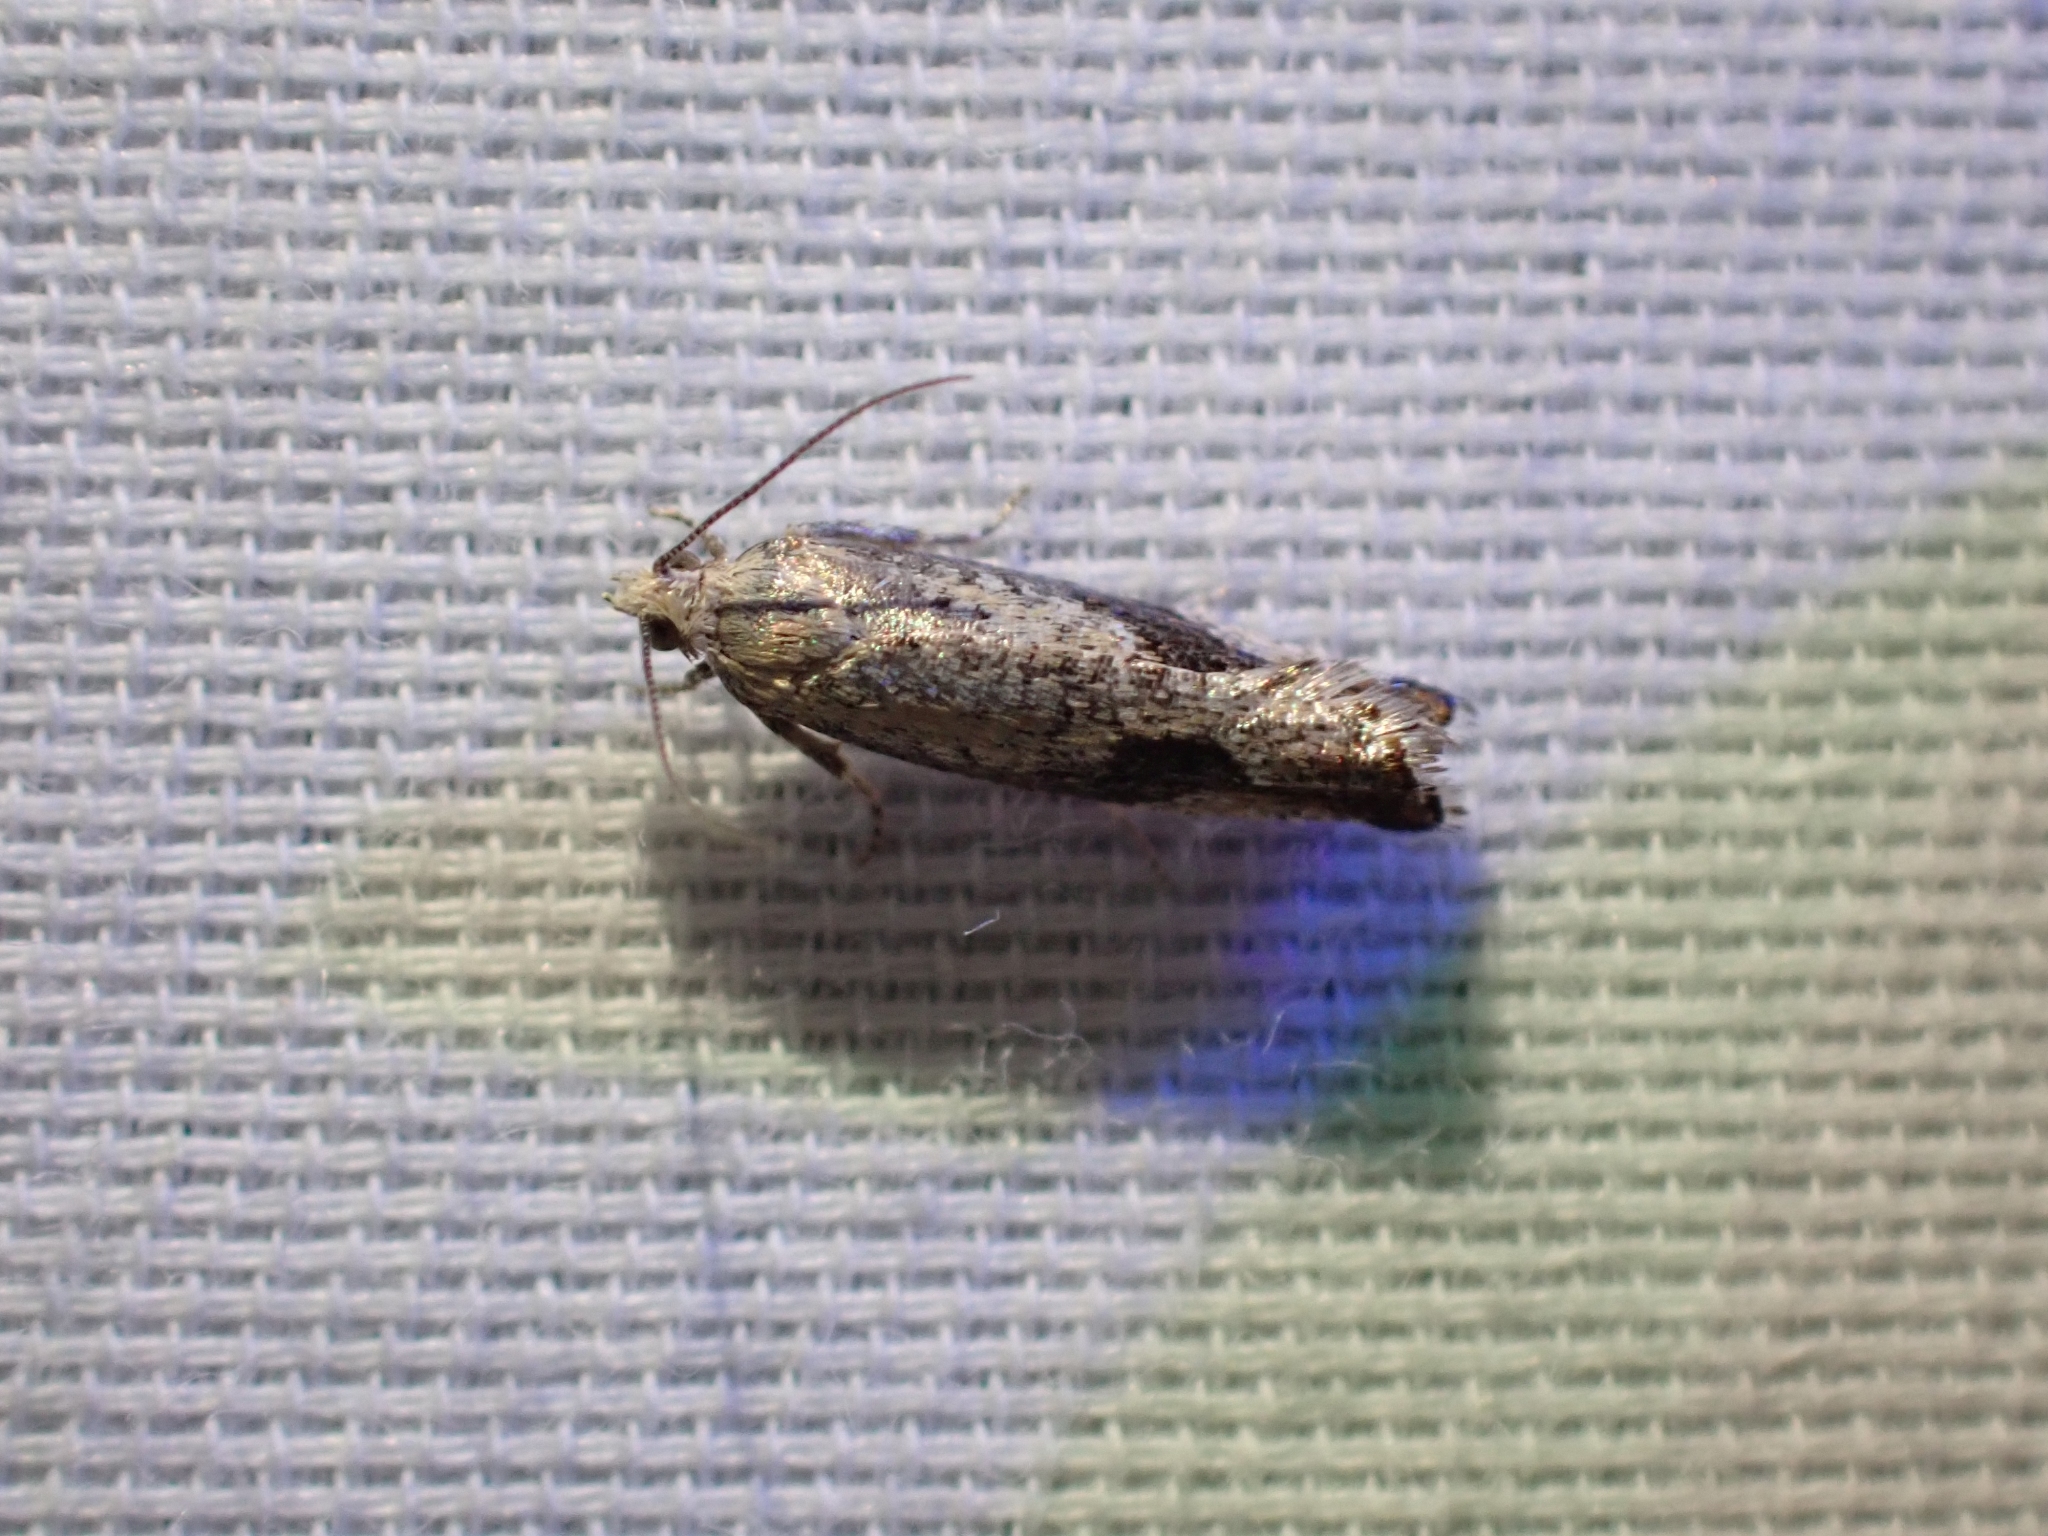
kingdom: Animalia
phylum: Arthropoda
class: Insecta
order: Lepidoptera
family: Tortricidae
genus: Epinotia
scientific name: Epinotia medioplagata
